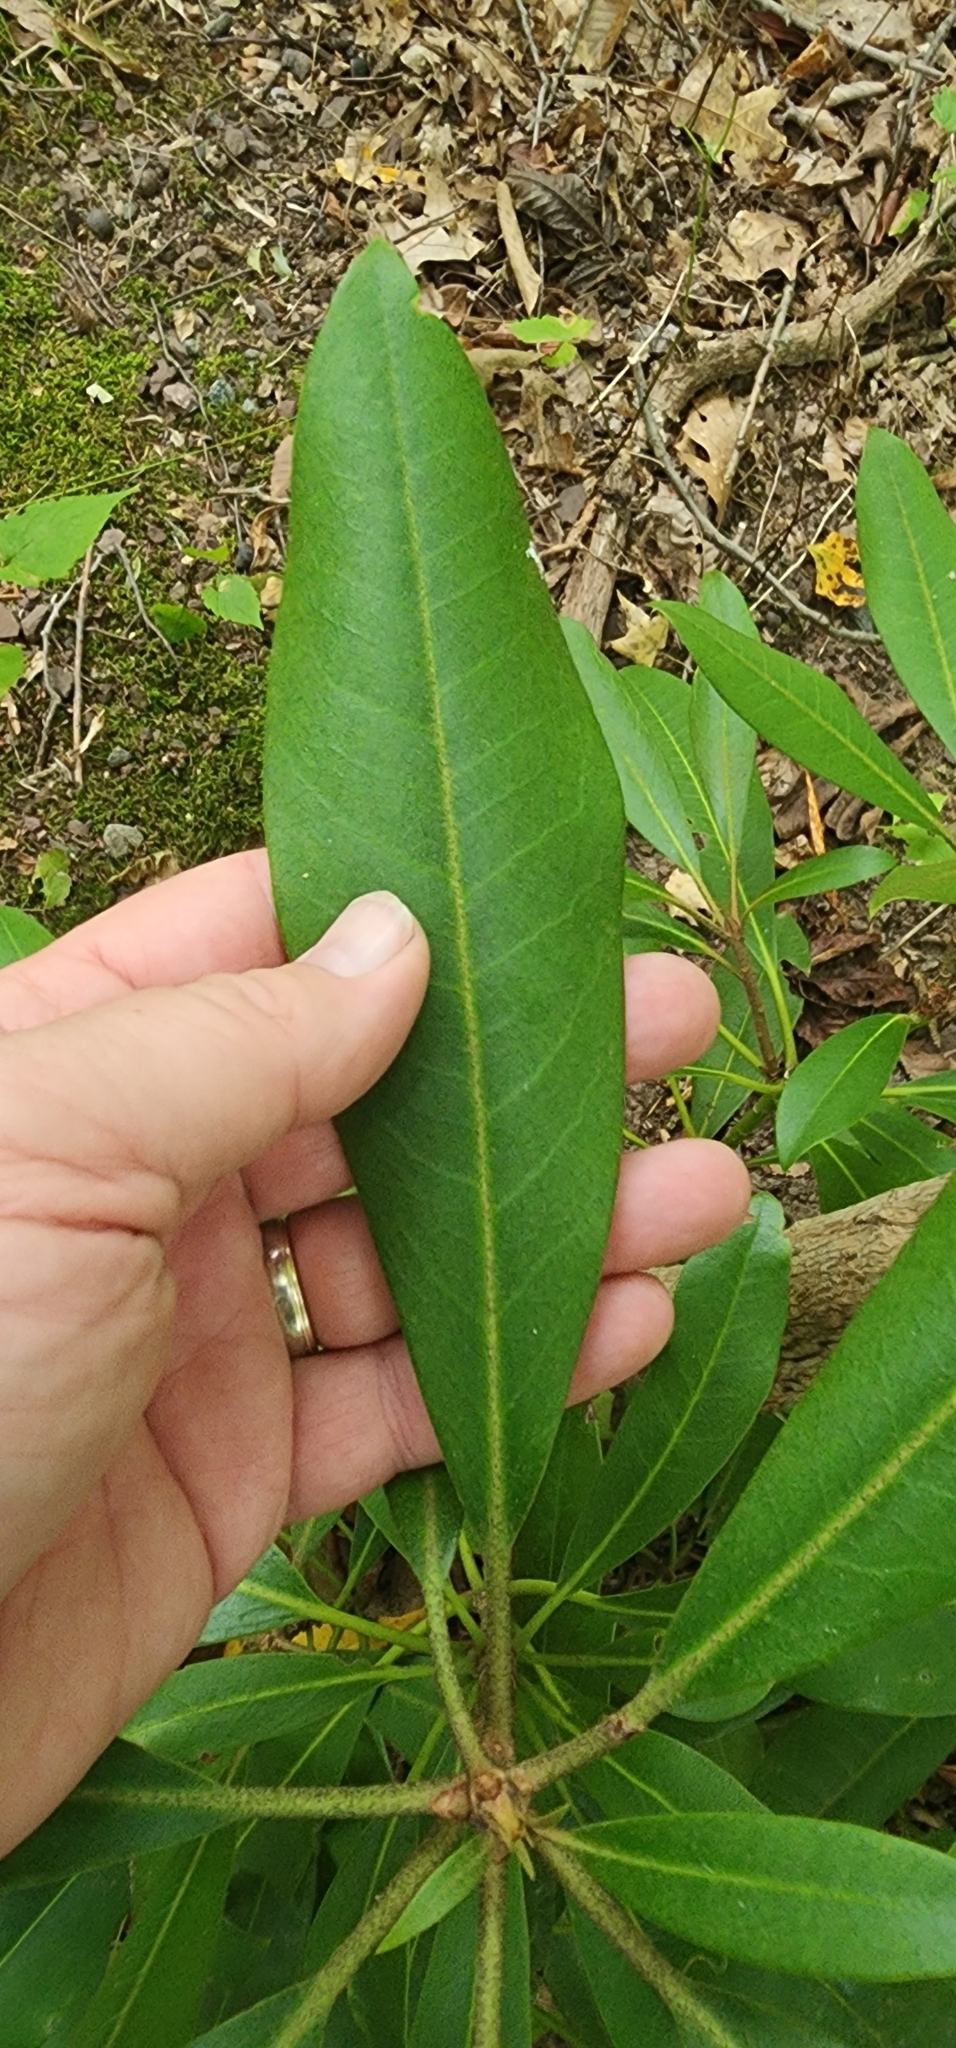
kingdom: Plantae
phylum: Tracheophyta
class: Magnoliopsida
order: Ericales
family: Ericaceae
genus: Rhododendron
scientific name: Rhododendron maximum
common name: Great rhododendron
